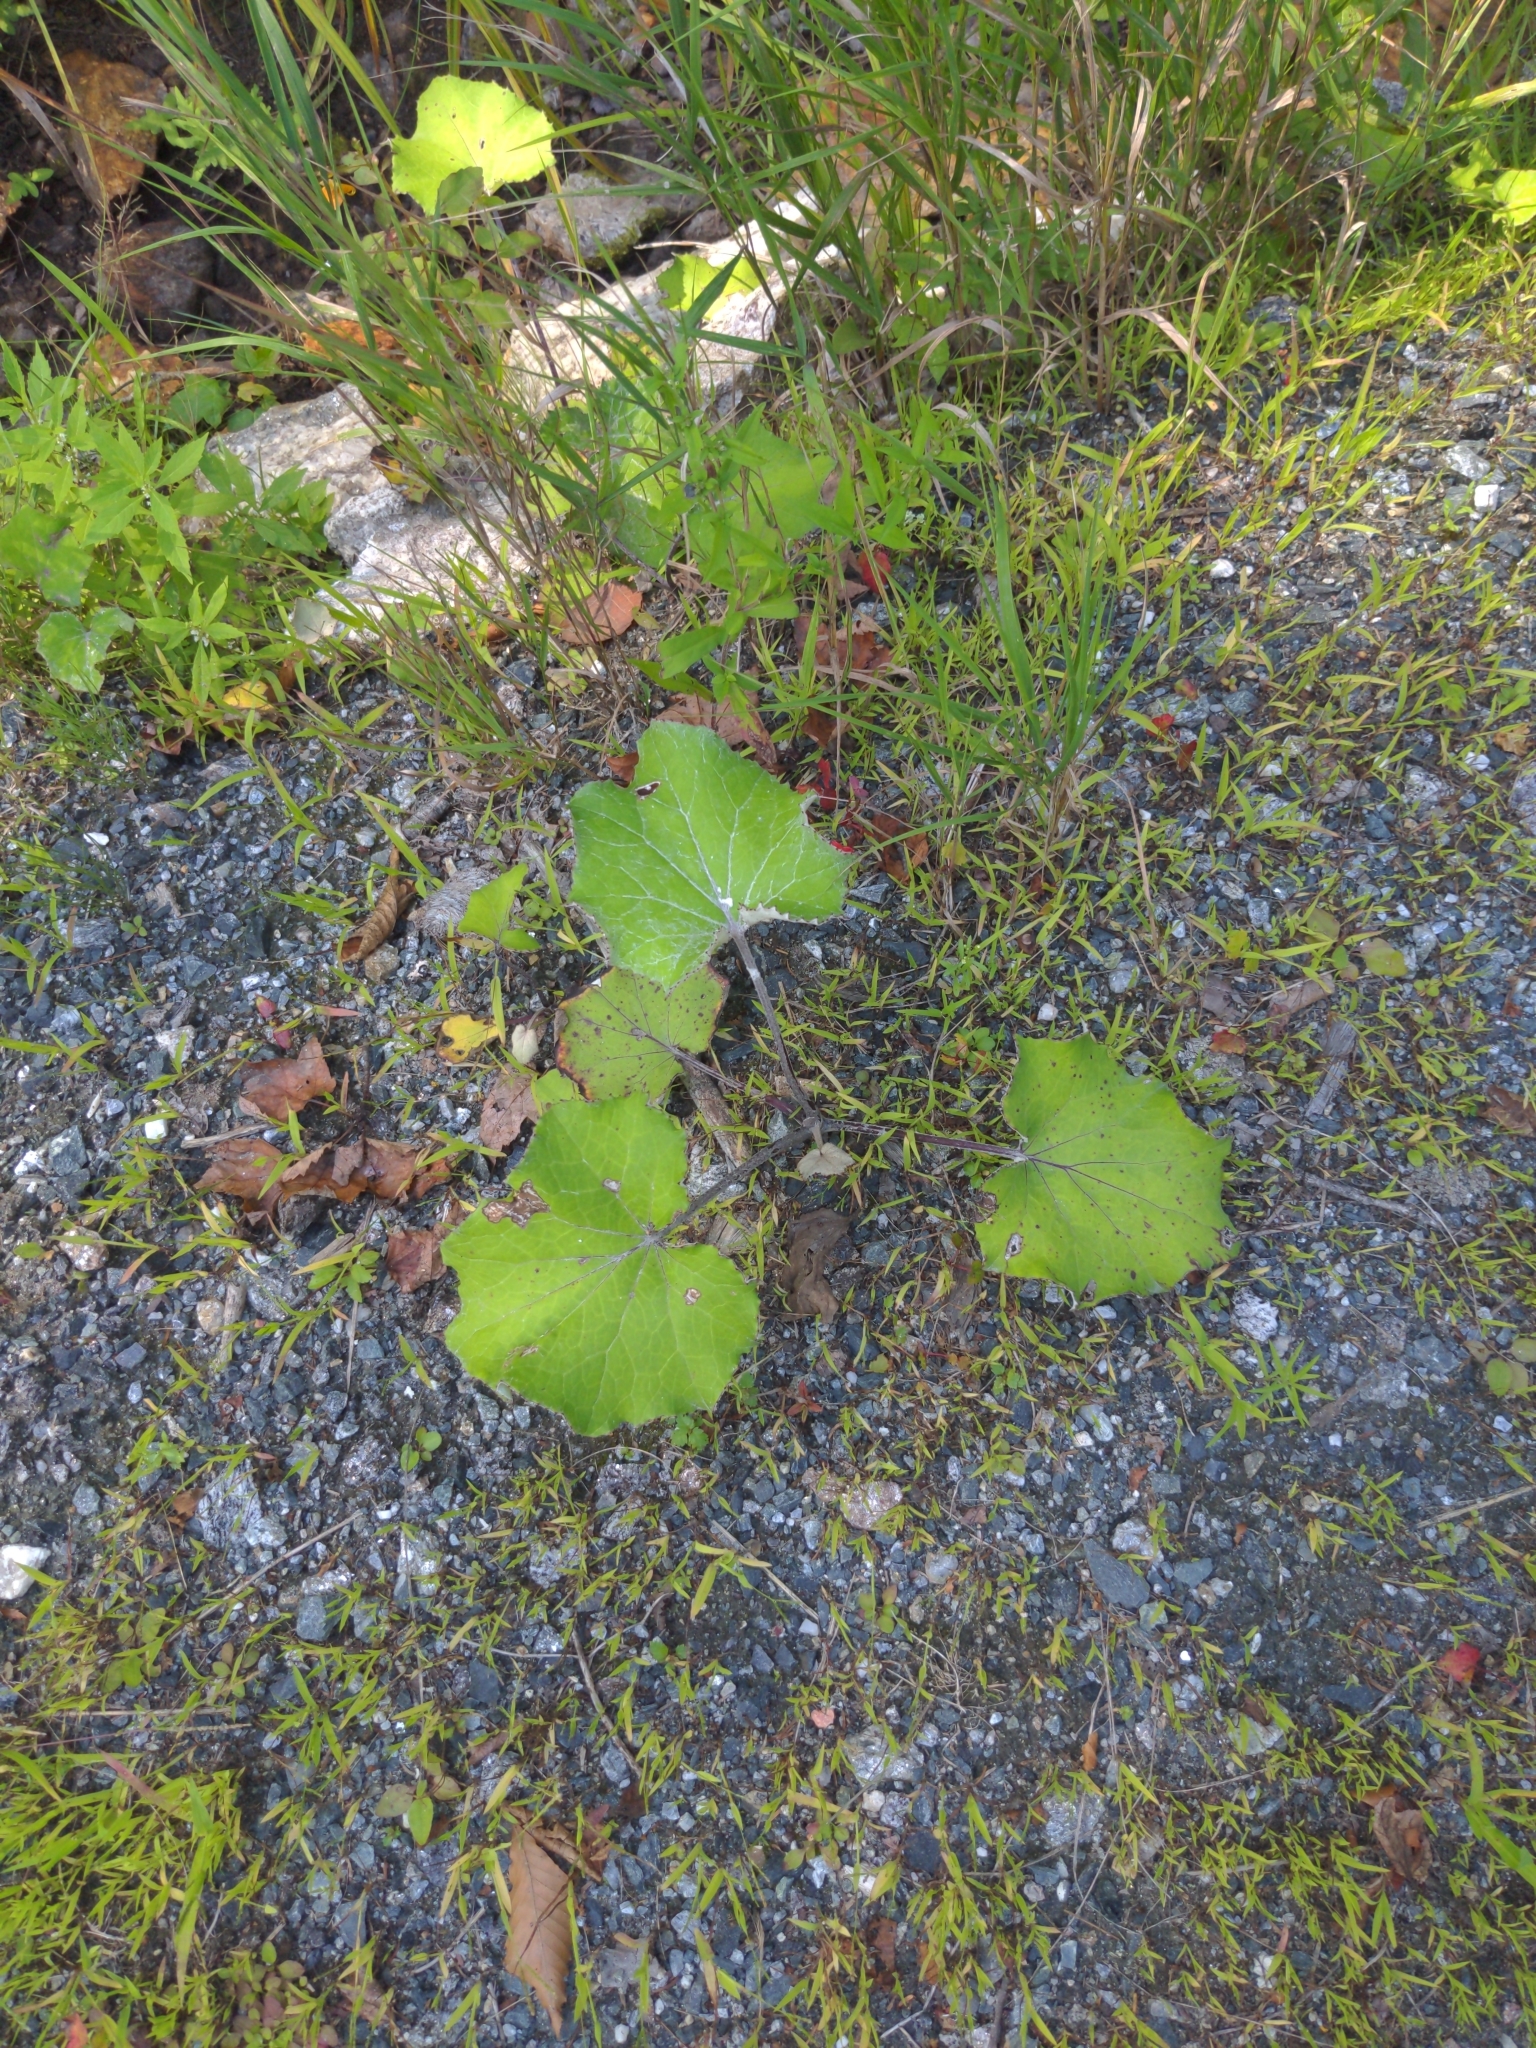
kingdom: Plantae
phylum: Tracheophyta
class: Magnoliopsida
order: Asterales
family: Asteraceae
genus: Tussilago
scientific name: Tussilago farfara
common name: Coltsfoot
